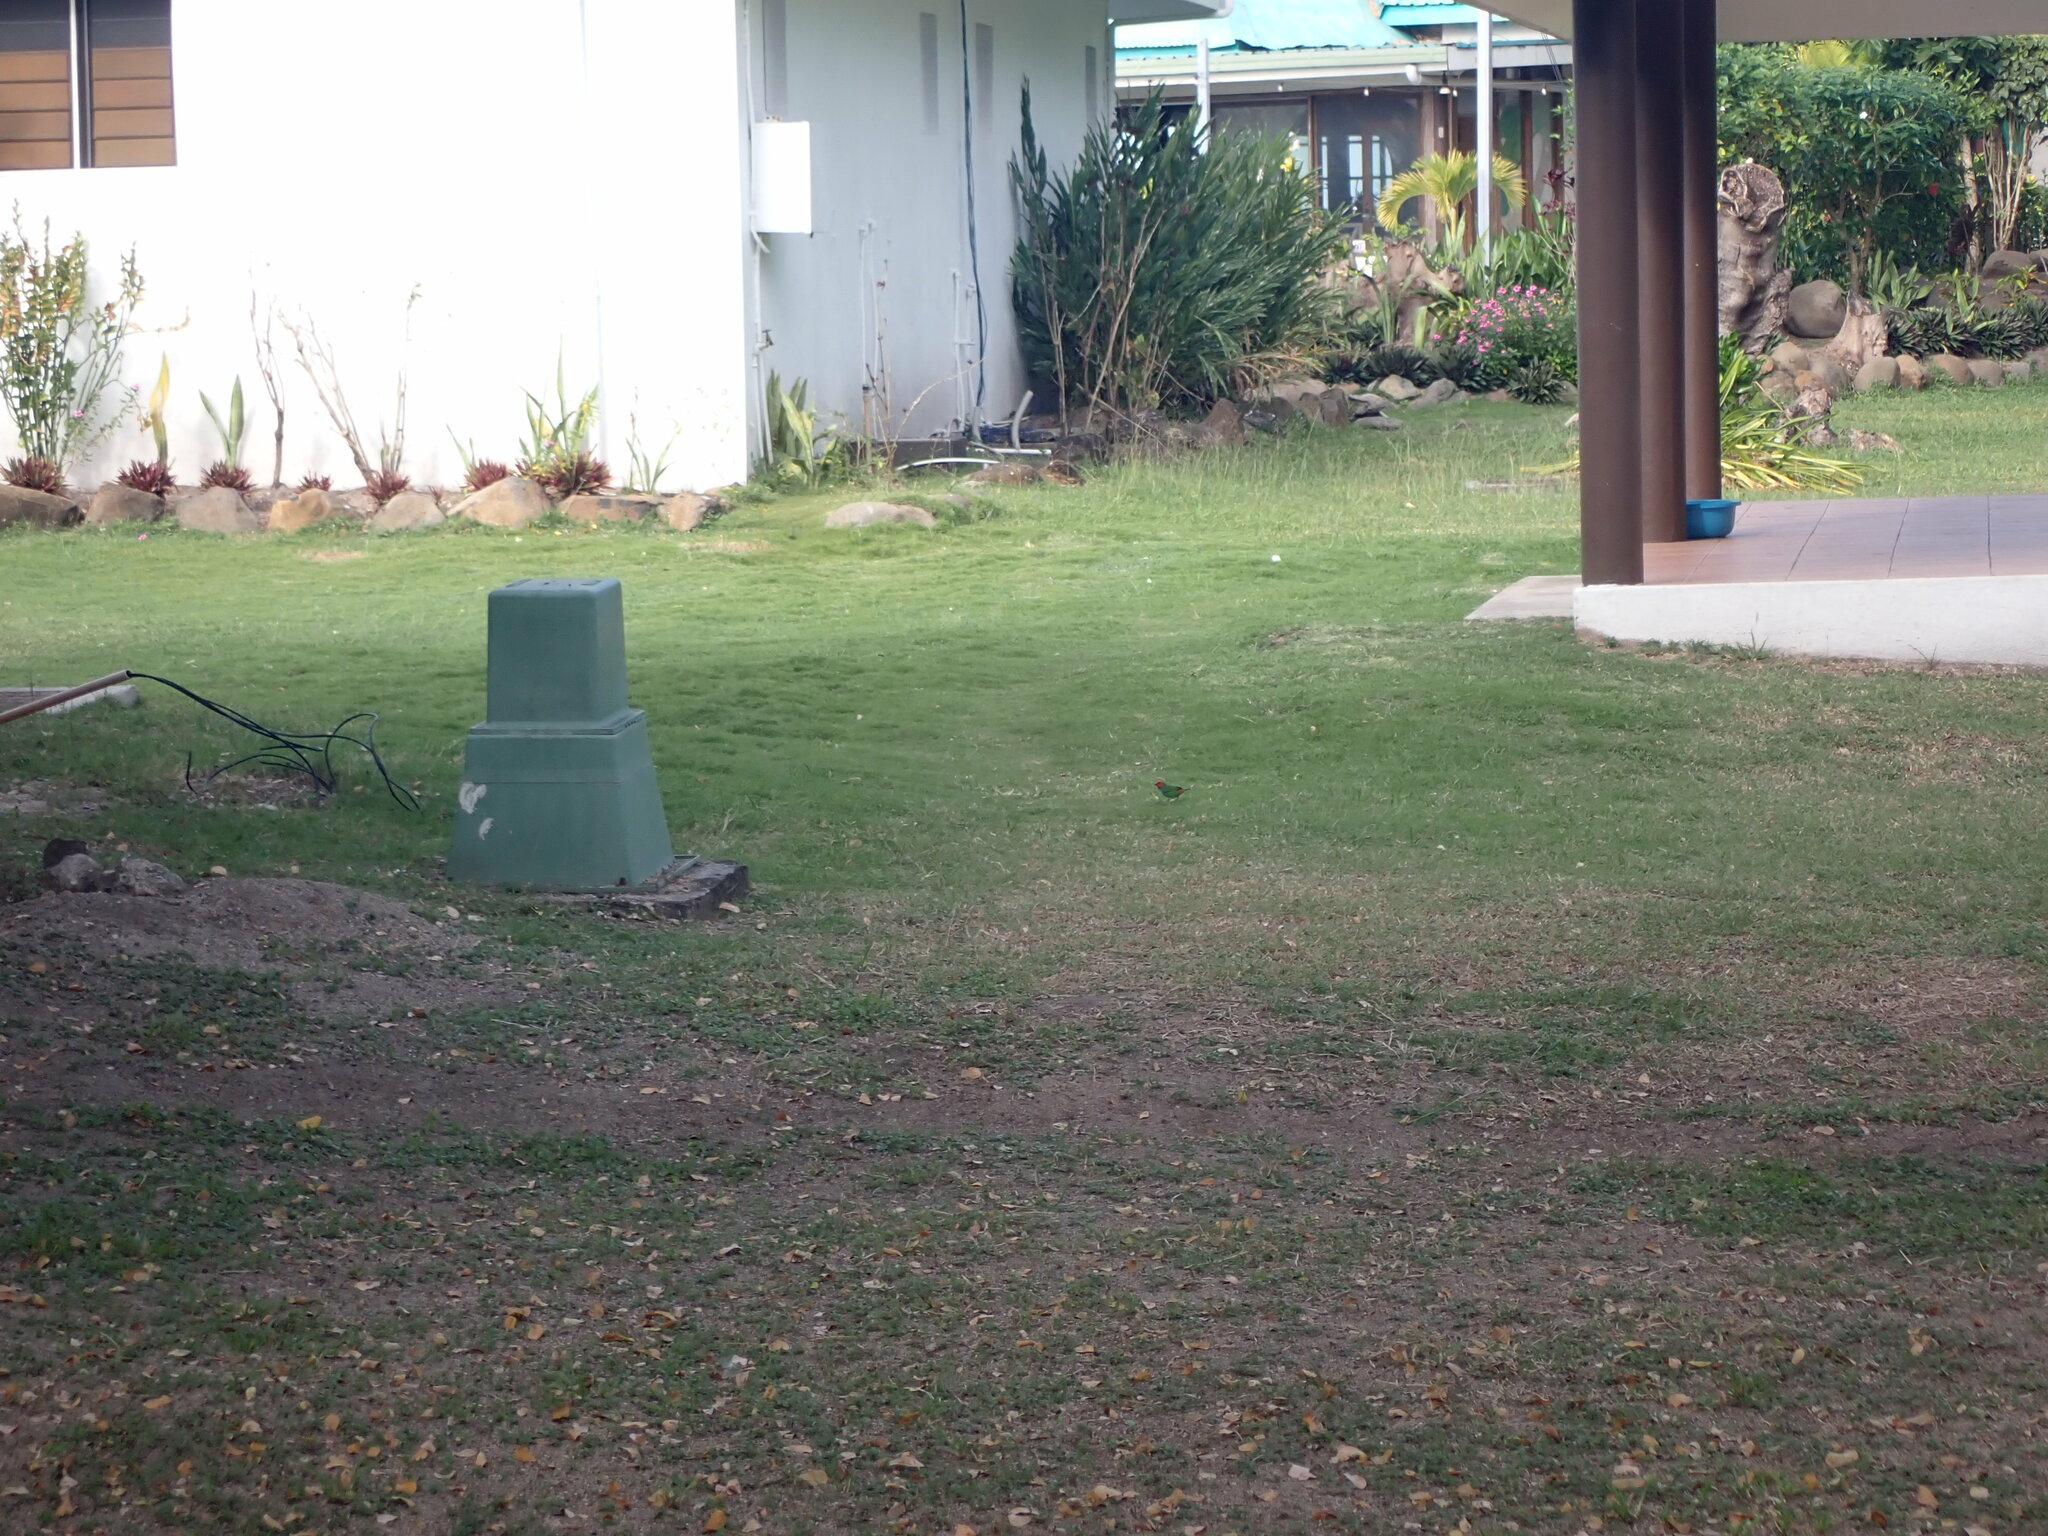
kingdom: Animalia
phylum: Chordata
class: Aves
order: Passeriformes
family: Estrildidae
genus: Erythrura
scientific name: Erythrura pealii
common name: Fiji parrotfinch
